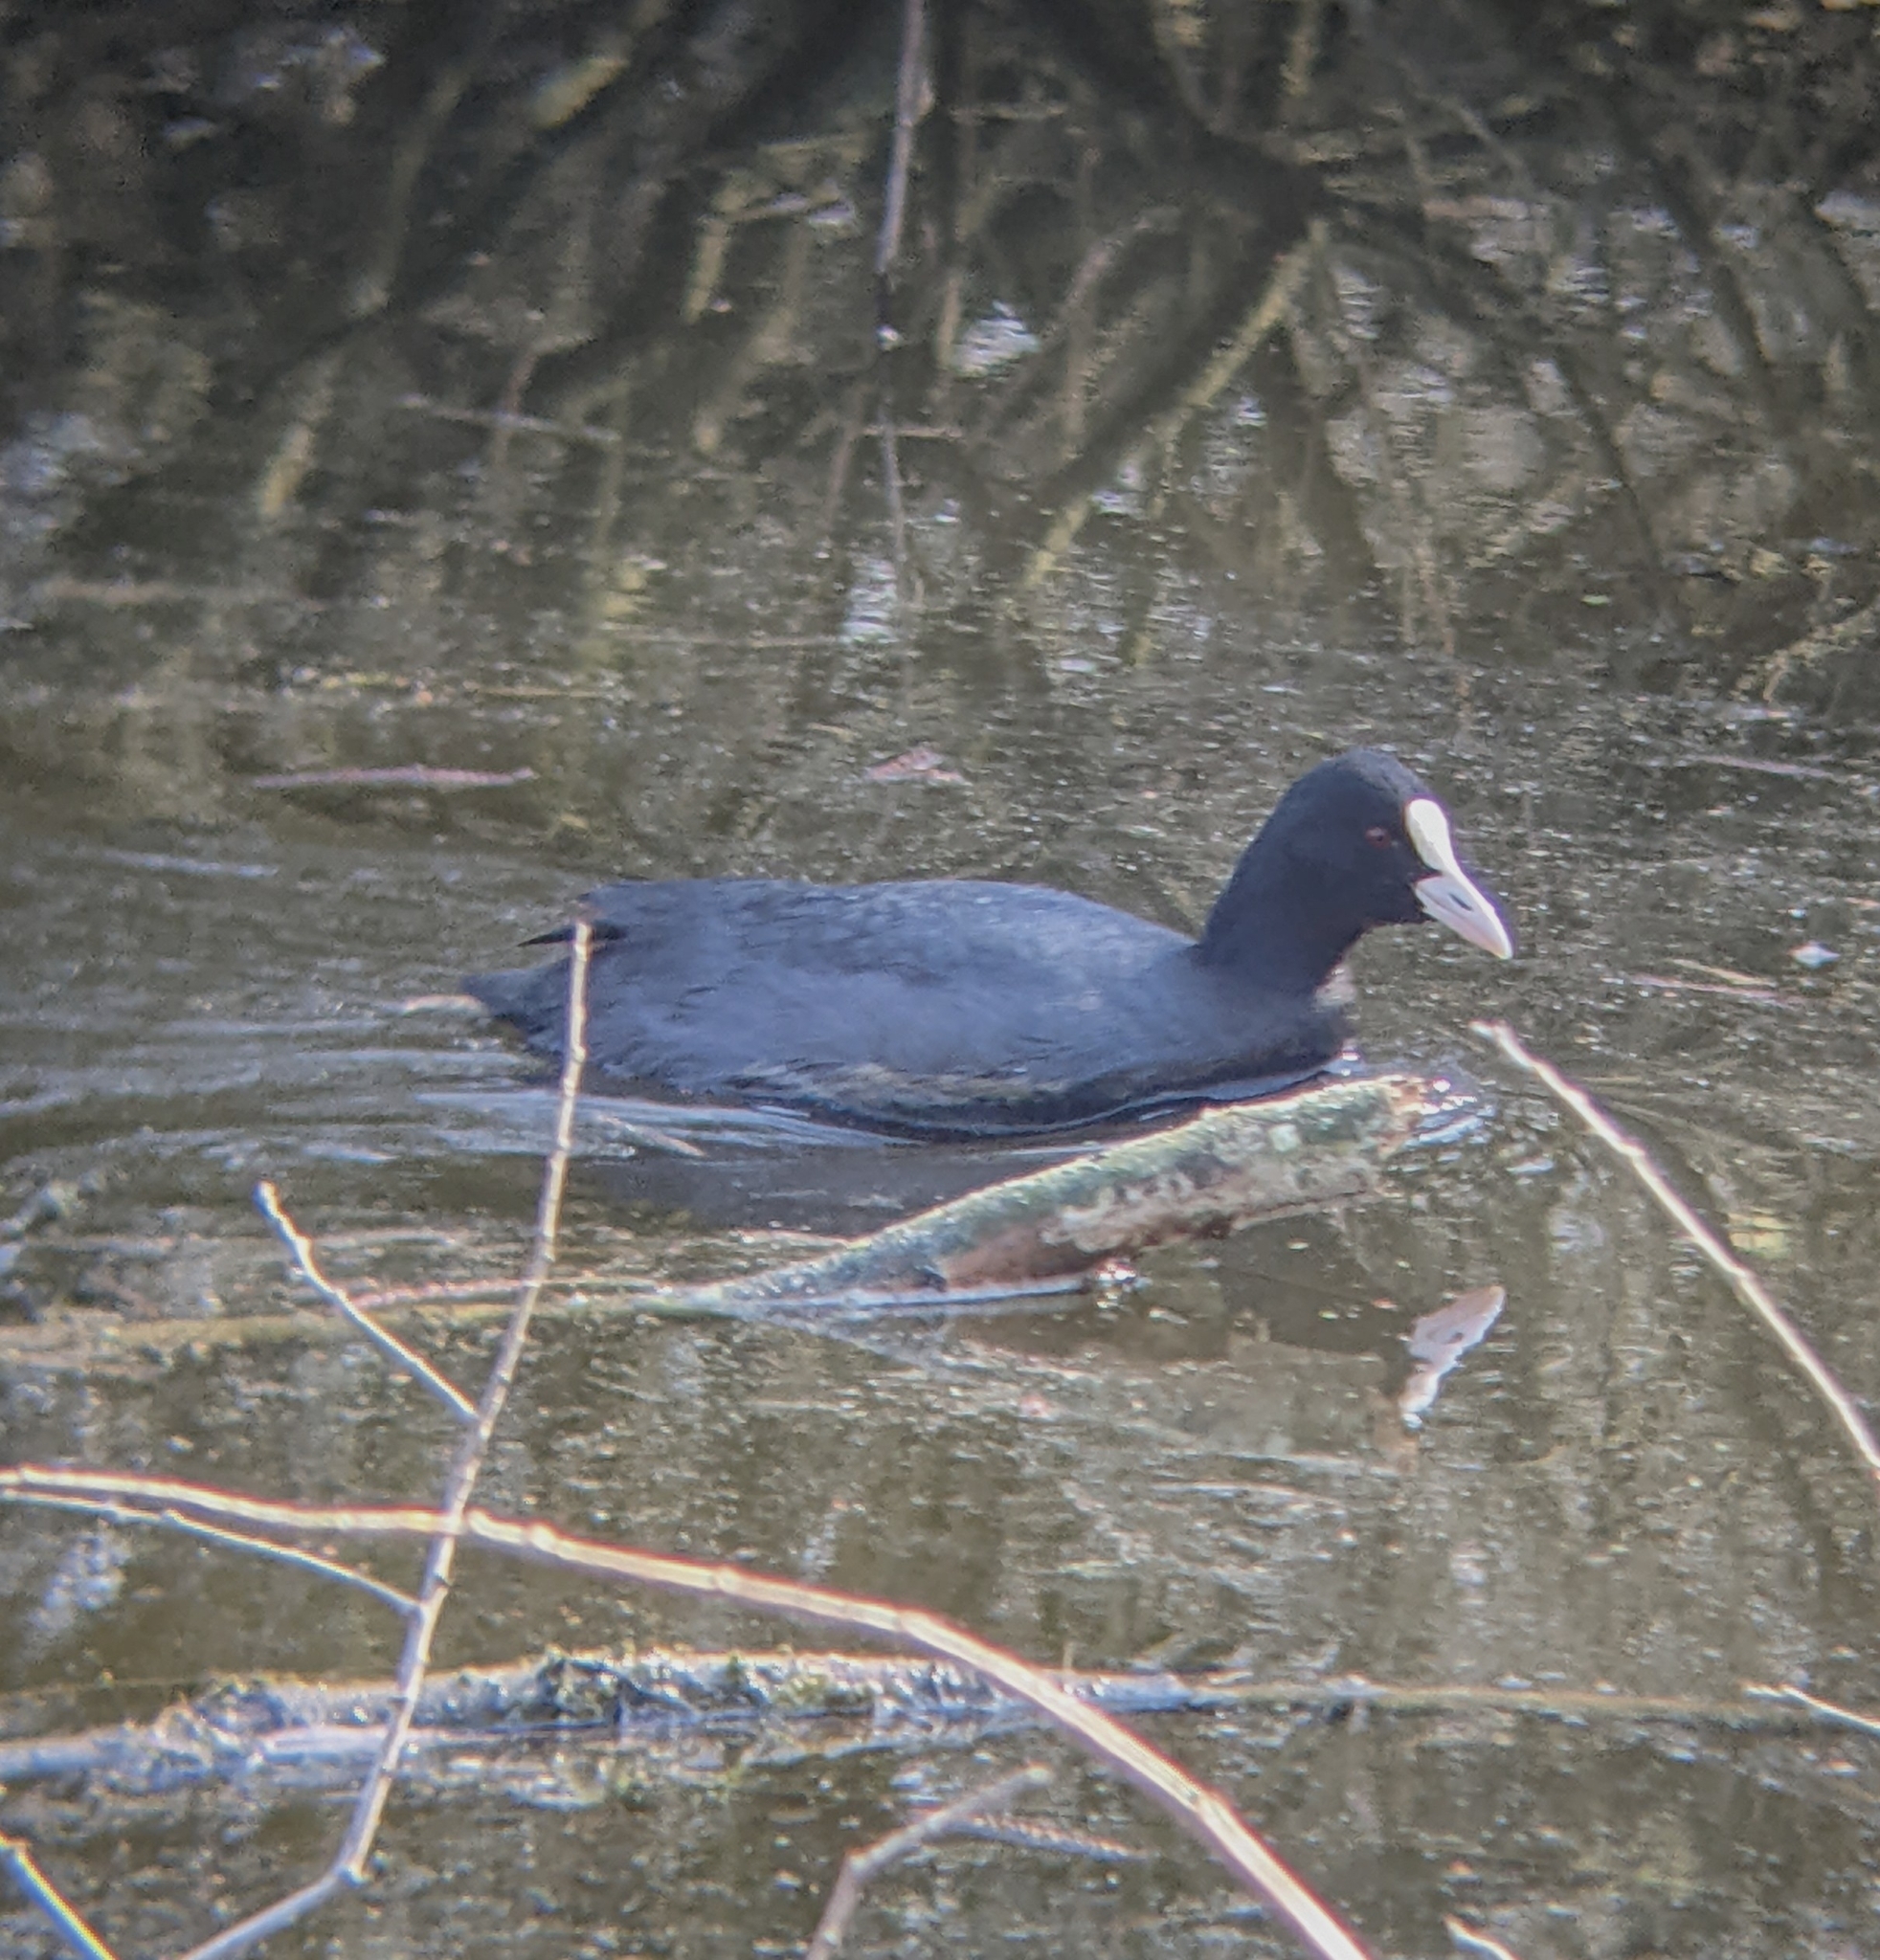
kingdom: Animalia
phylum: Chordata
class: Aves
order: Gruiformes
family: Rallidae
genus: Fulica
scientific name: Fulica atra
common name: Eurasian coot
